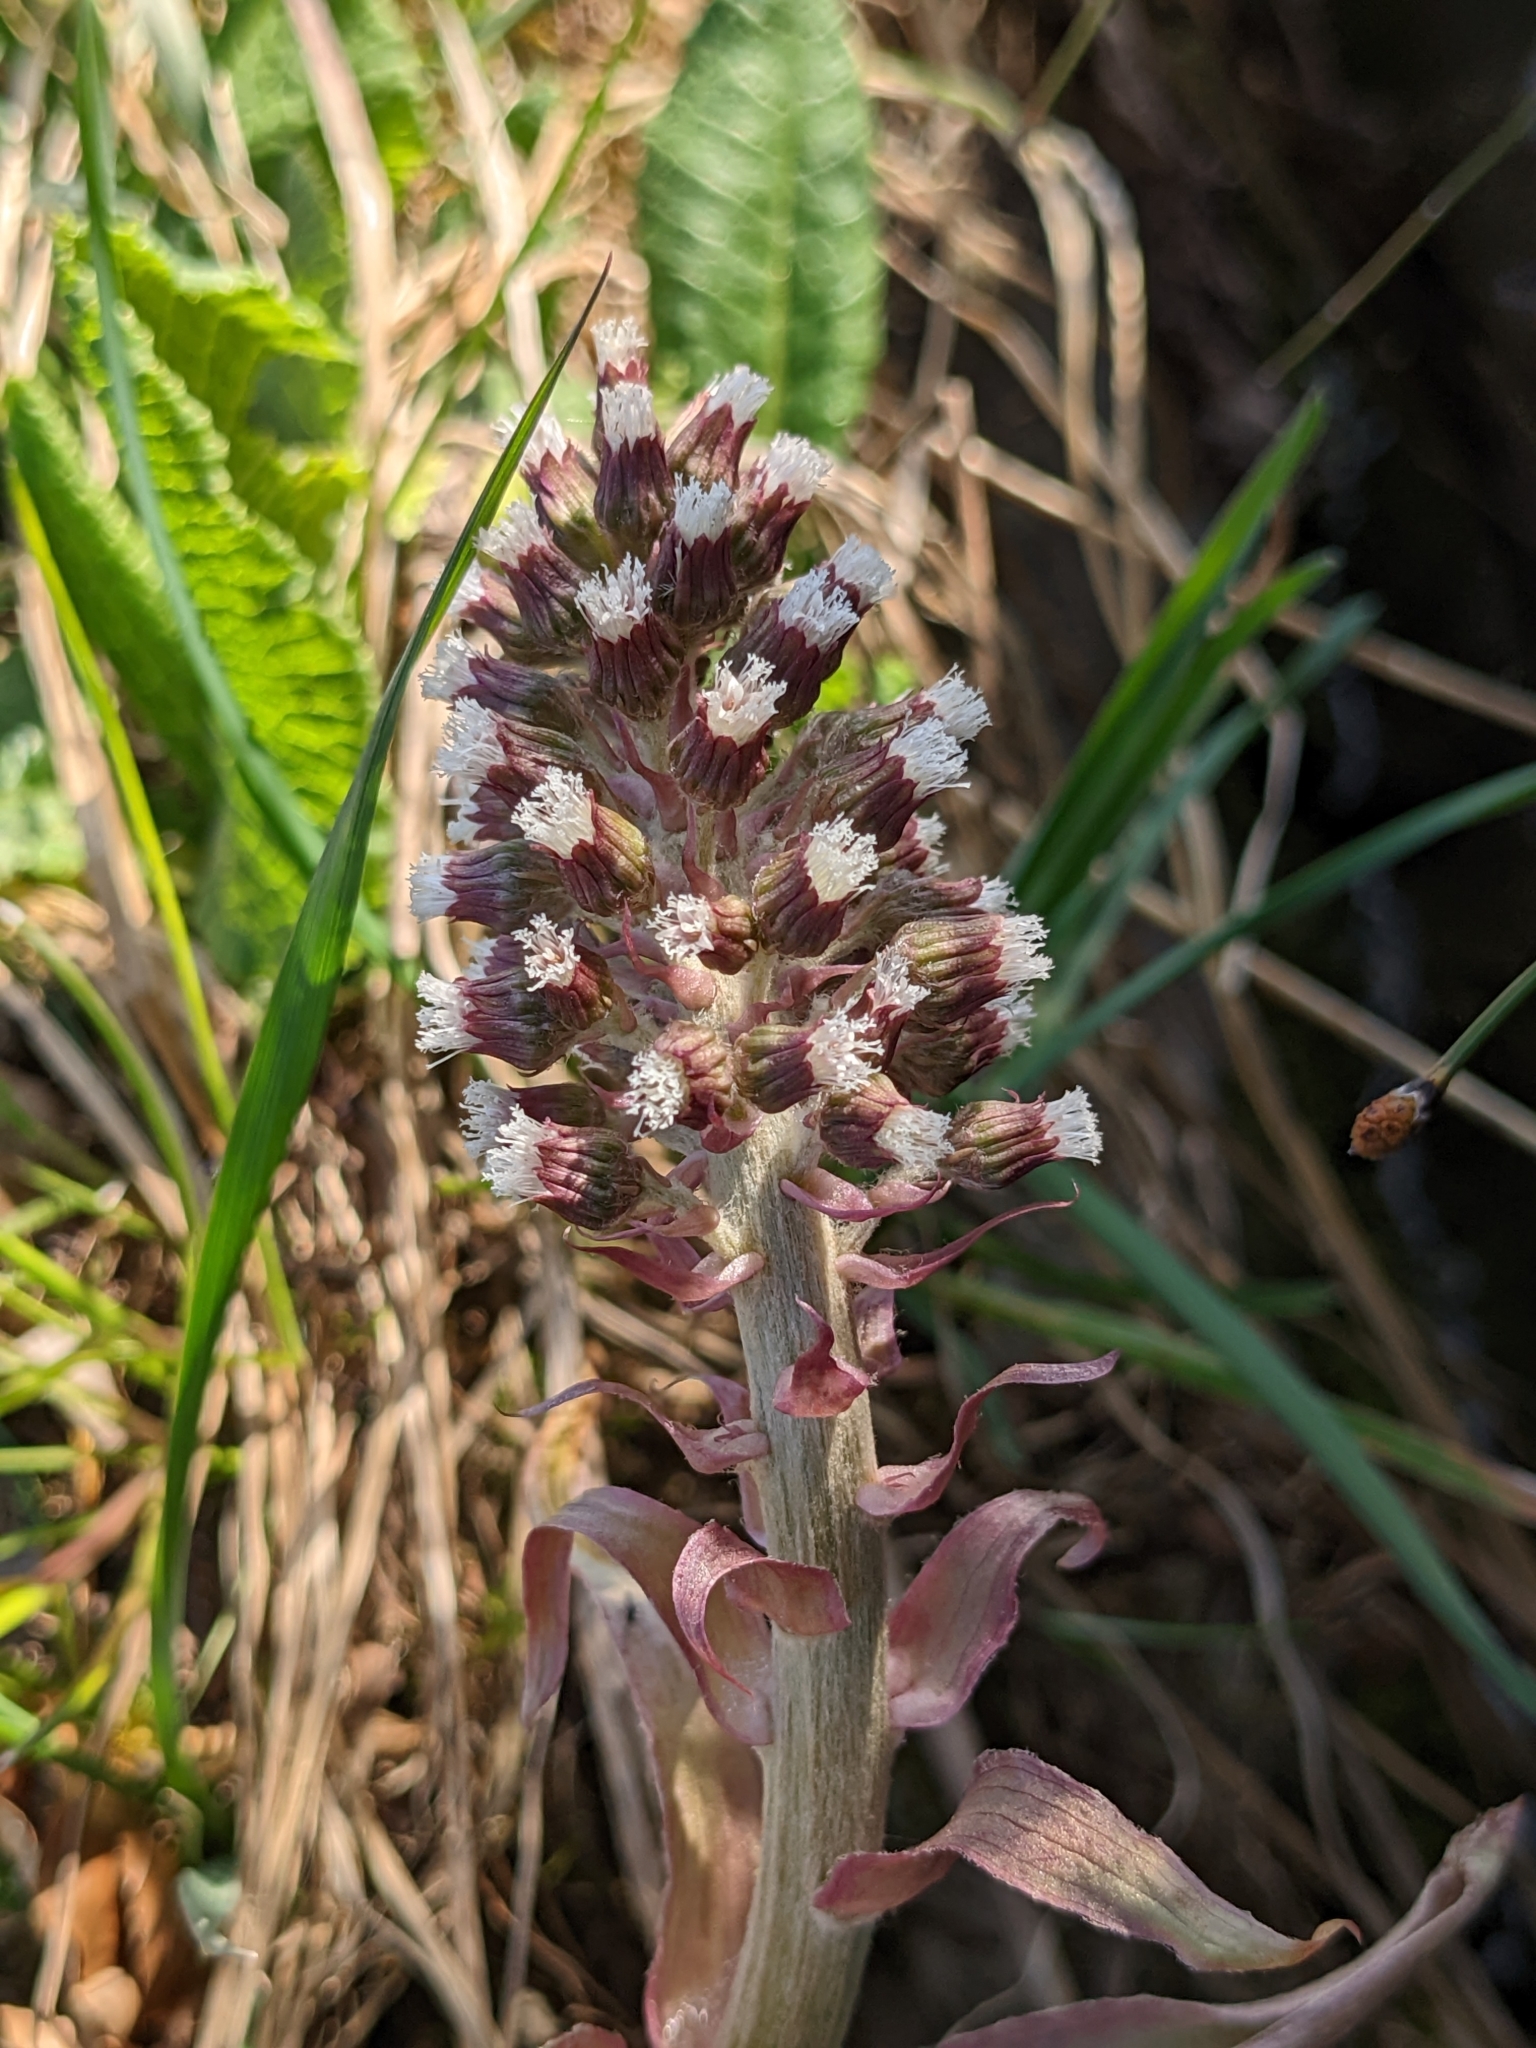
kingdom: Plantae
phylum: Tracheophyta
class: Magnoliopsida
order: Asterales
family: Asteraceae
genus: Petasites
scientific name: Petasites hybridus
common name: Butterbur
